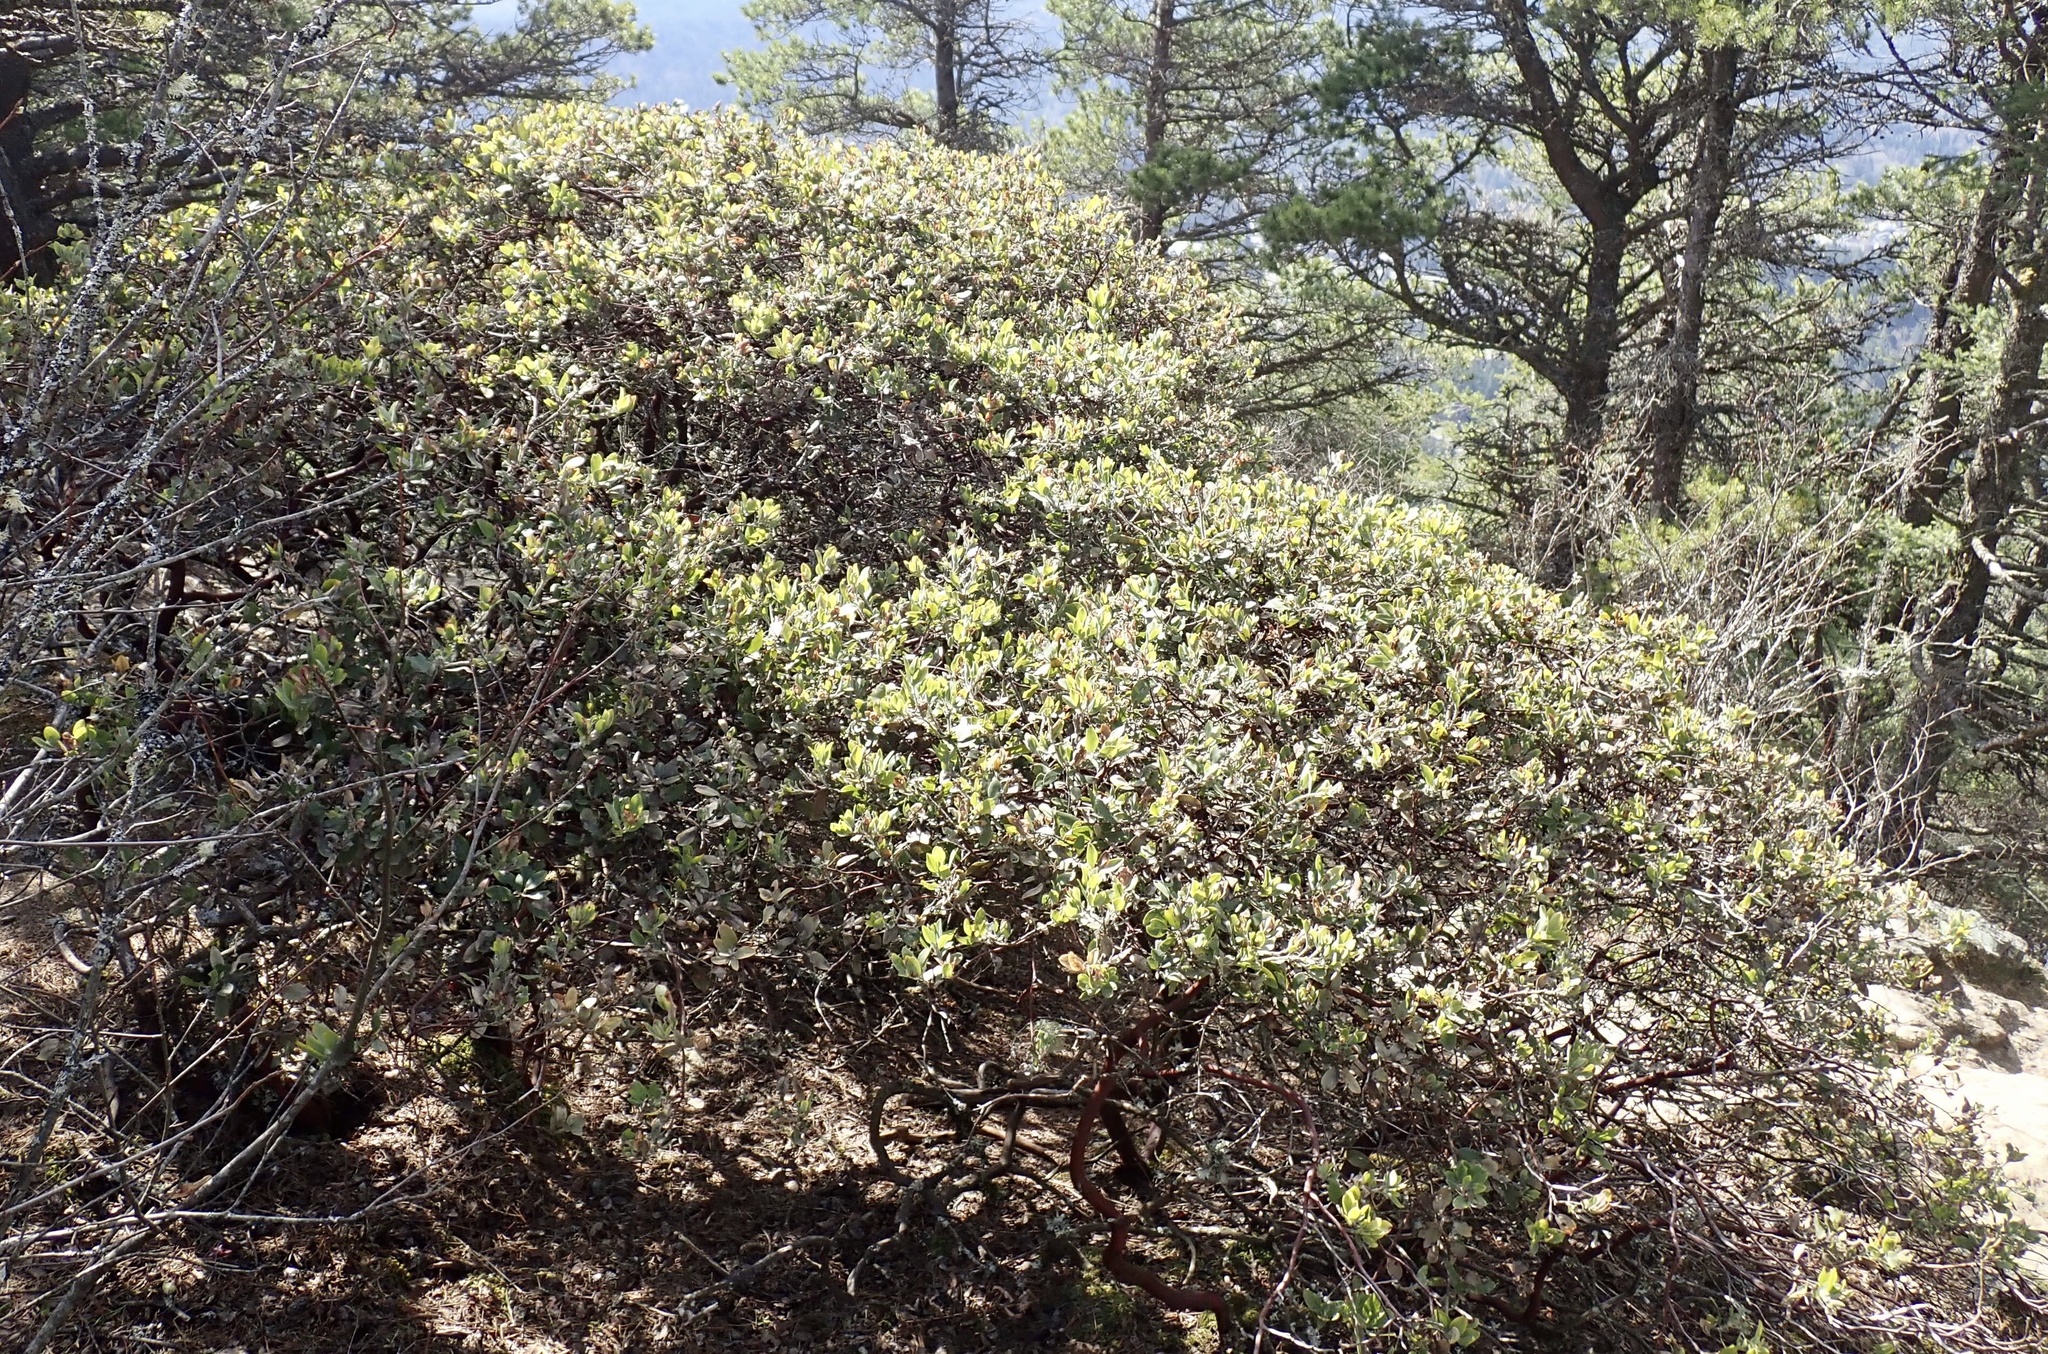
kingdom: Plantae
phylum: Tracheophyta
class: Magnoliopsida
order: Ericales
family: Ericaceae
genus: Arctostaphylos
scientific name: Arctostaphylos columbiana
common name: Bristly bearberry
